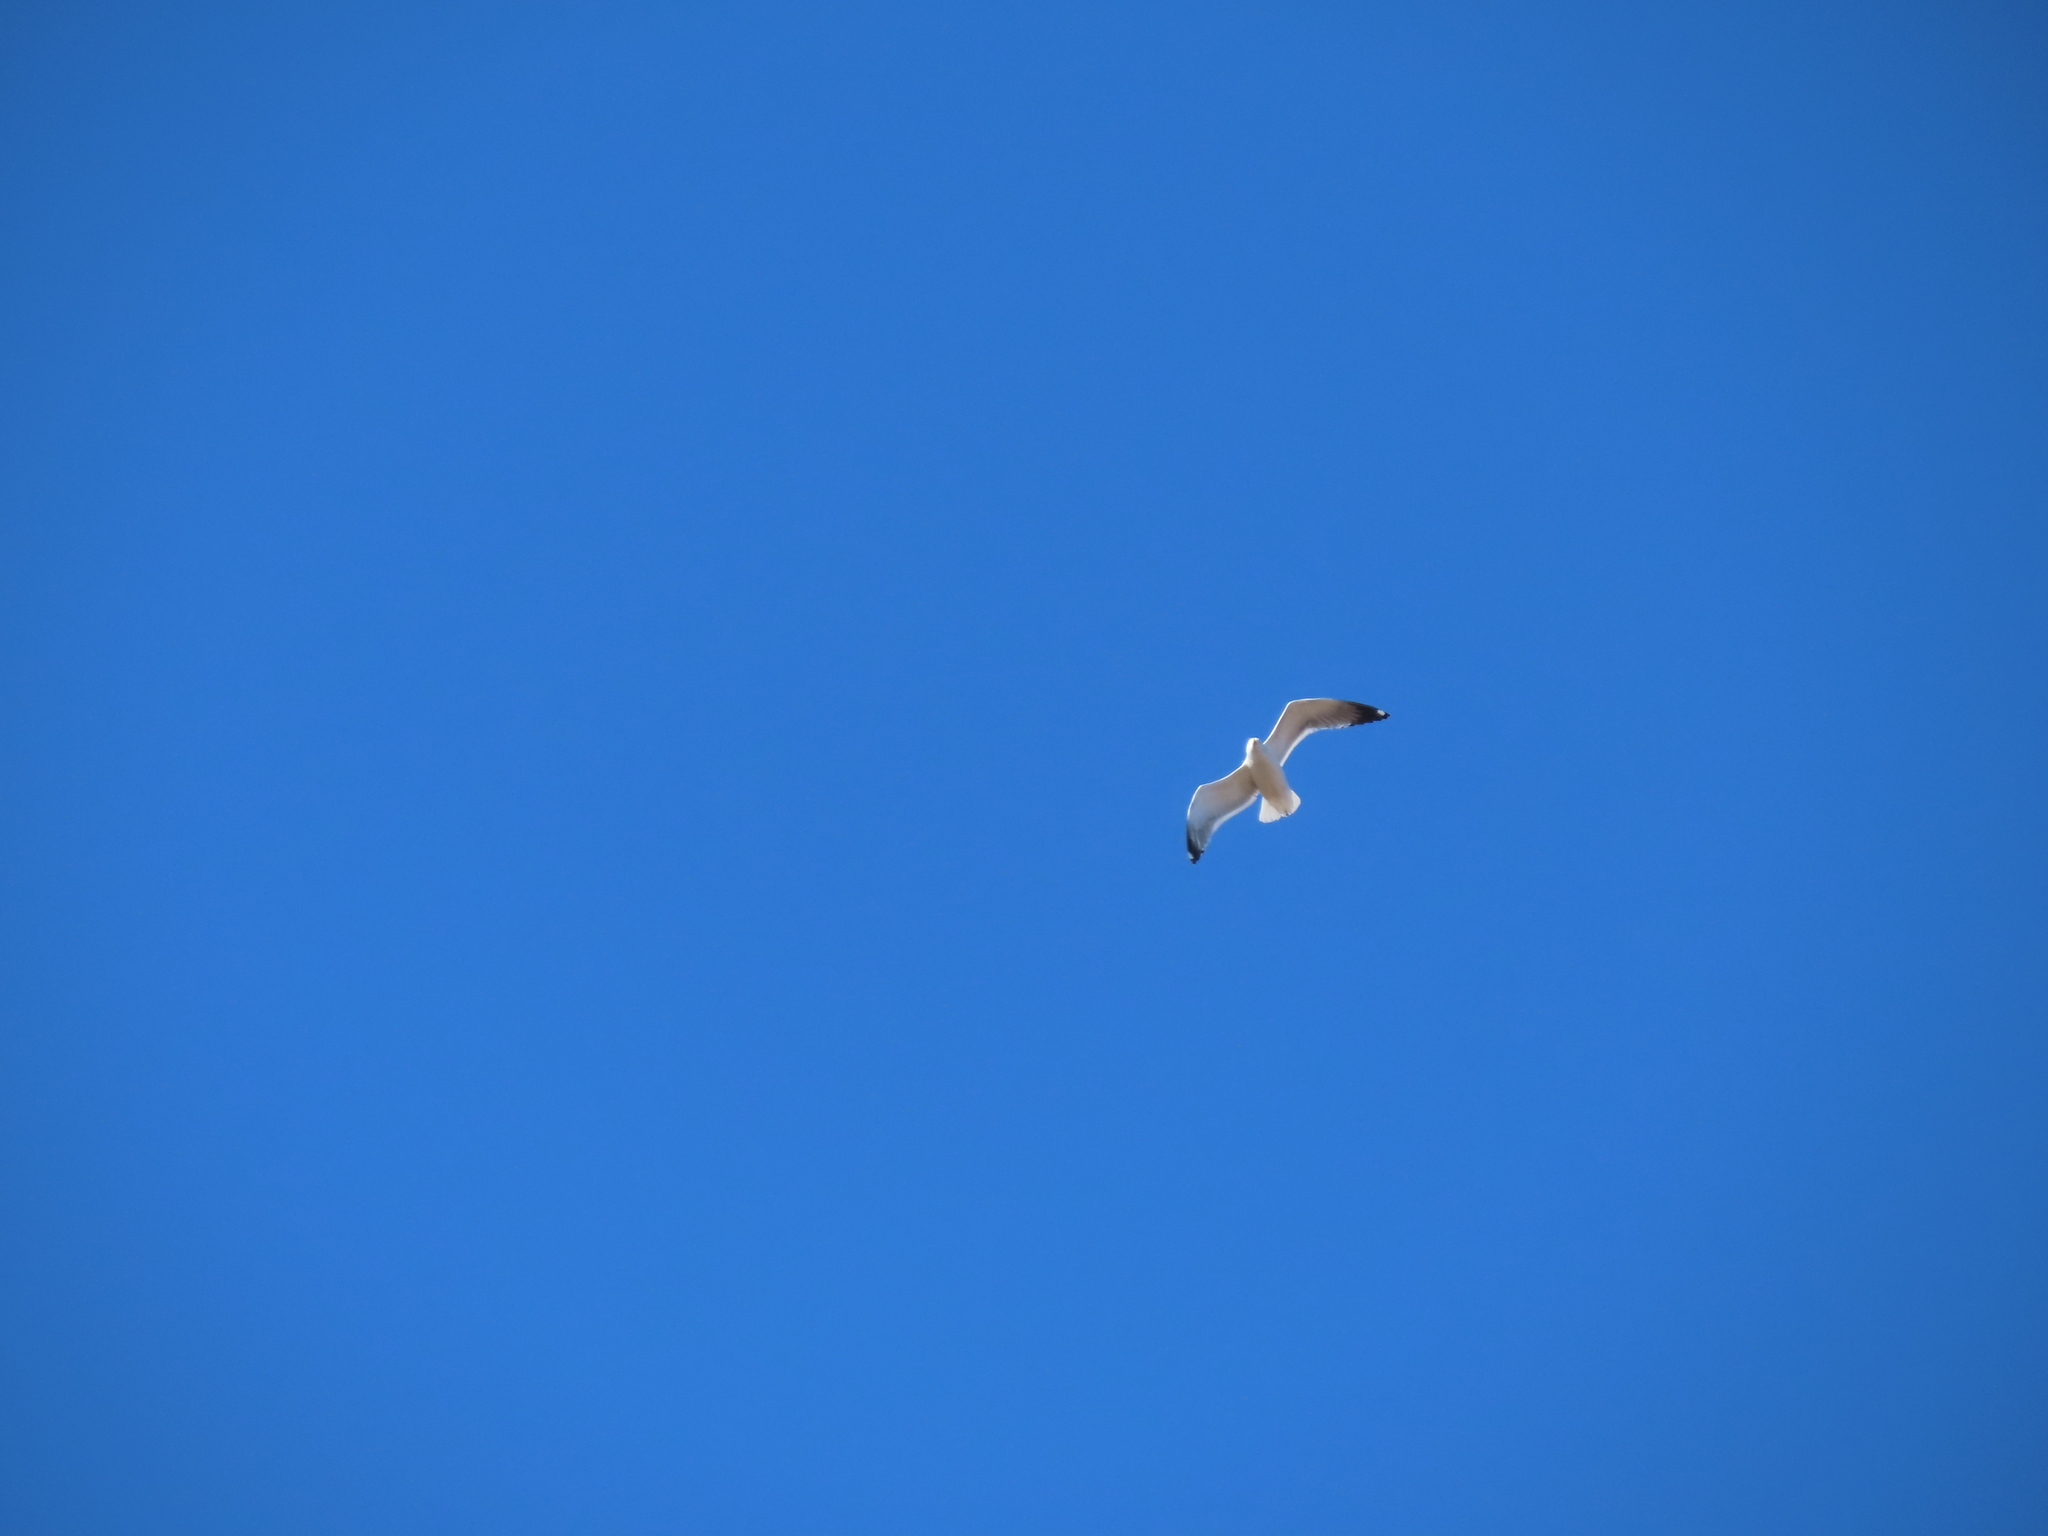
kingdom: Animalia
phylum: Chordata
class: Aves
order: Charadriiformes
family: Laridae
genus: Larus
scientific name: Larus fuscus
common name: Lesser black-backed gull
